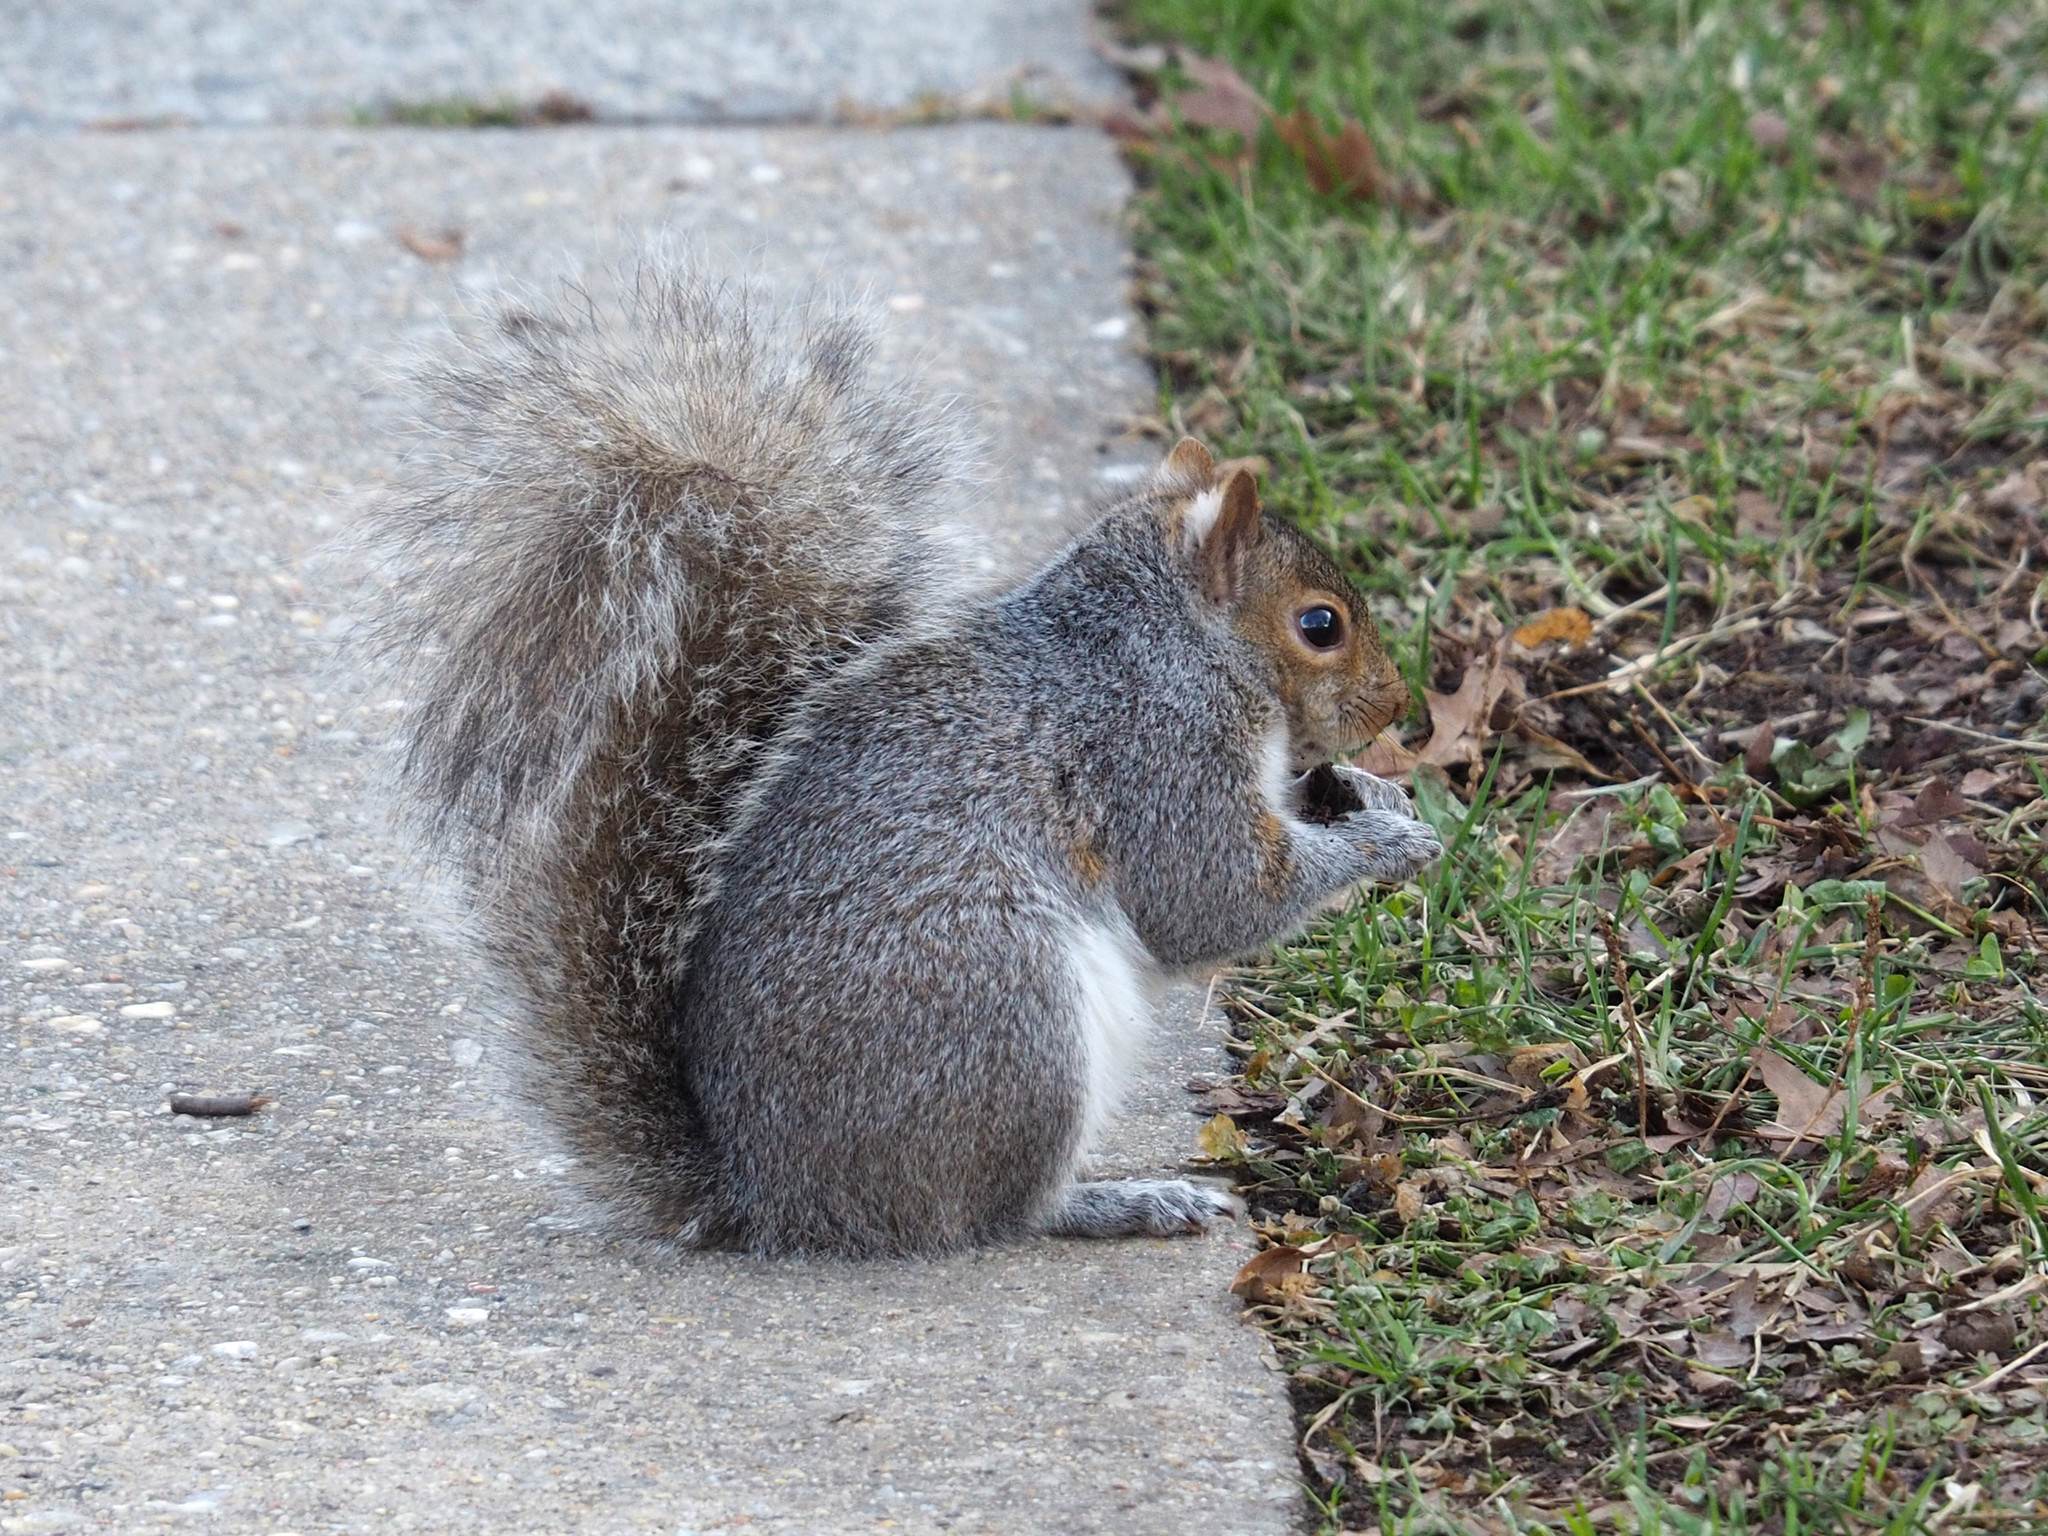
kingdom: Animalia
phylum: Chordata
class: Mammalia
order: Rodentia
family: Sciuridae
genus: Sciurus
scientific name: Sciurus carolinensis
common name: Eastern gray squirrel
